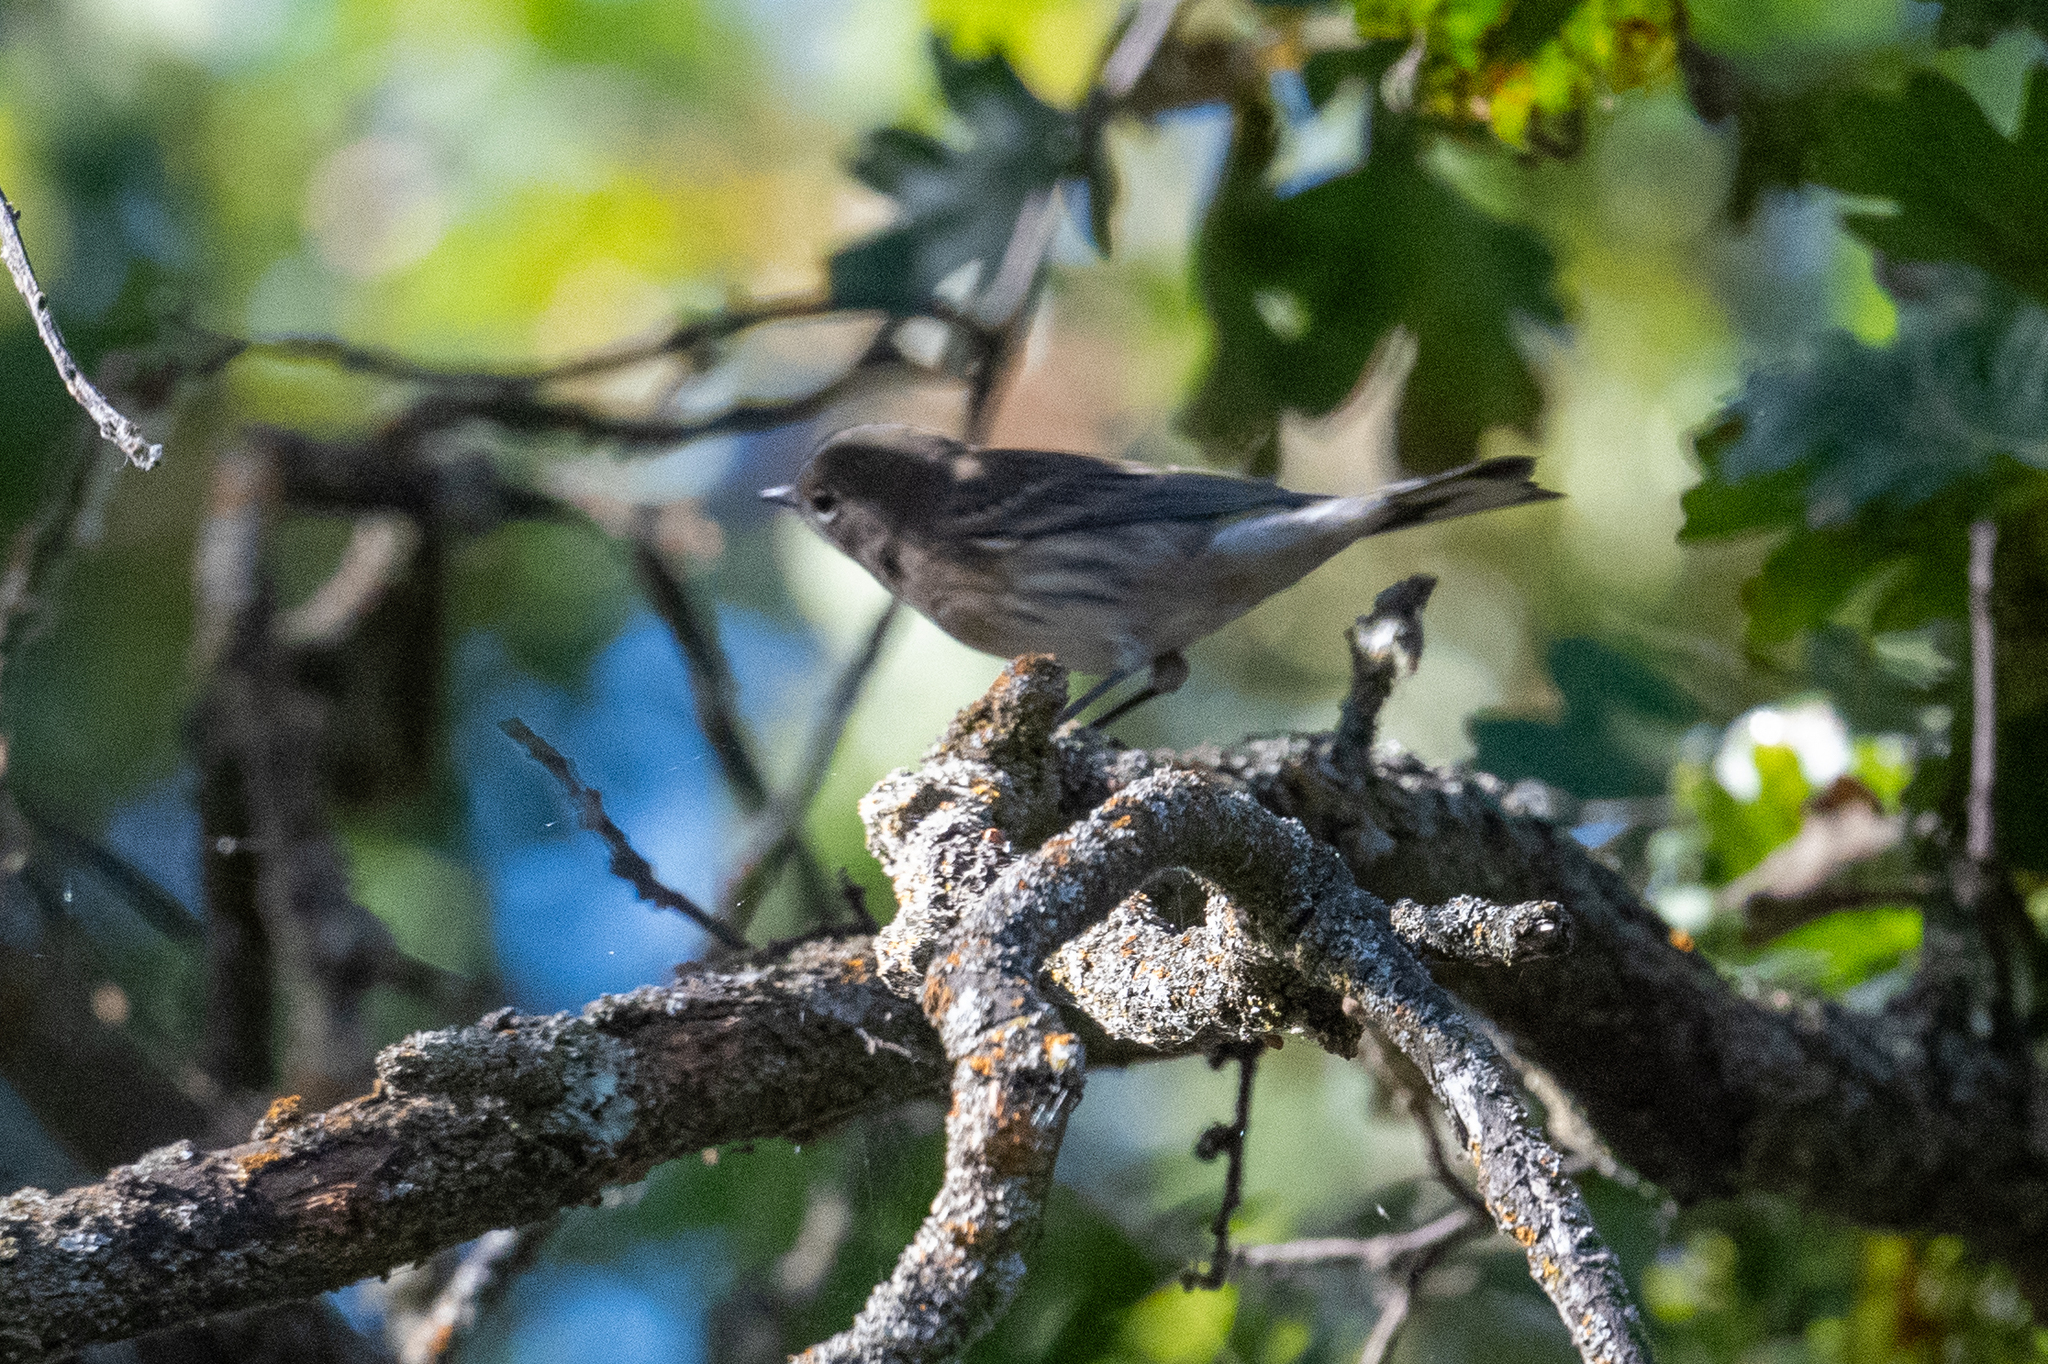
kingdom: Animalia
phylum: Chordata
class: Aves
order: Passeriformes
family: Parulidae
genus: Setophaga
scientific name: Setophaga coronata
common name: Myrtle warbler
